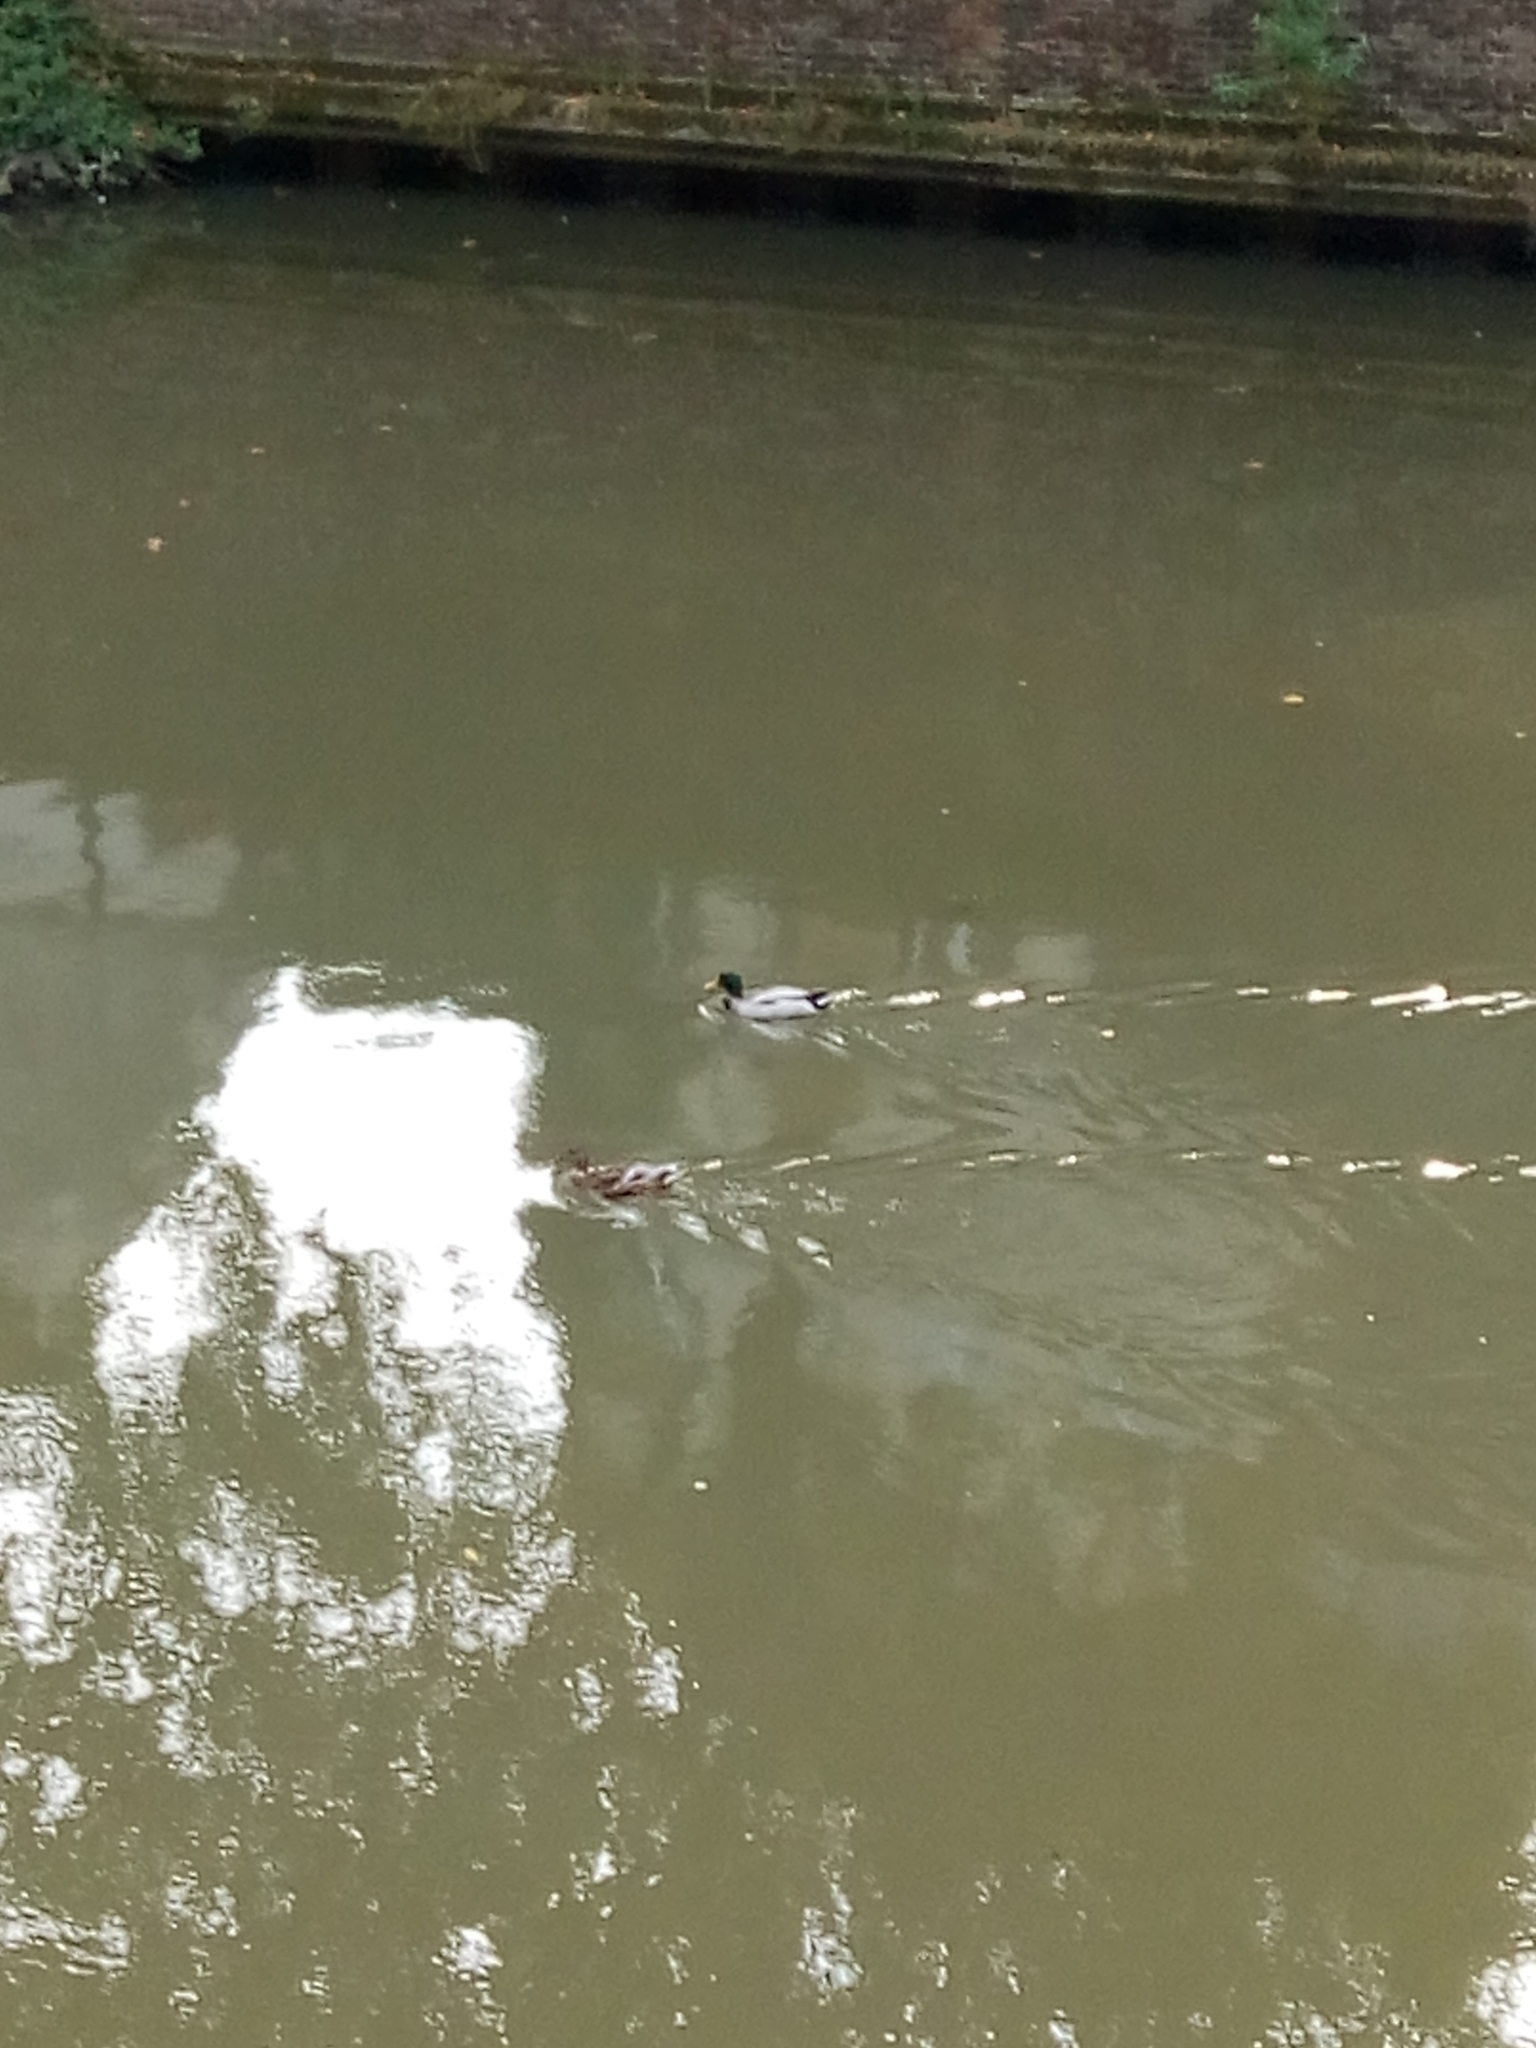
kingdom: Animalia
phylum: Chordata
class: Aves
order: Anseriformes
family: Anatidae
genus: Anas
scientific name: Anas platyrhynchos
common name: Mallard
